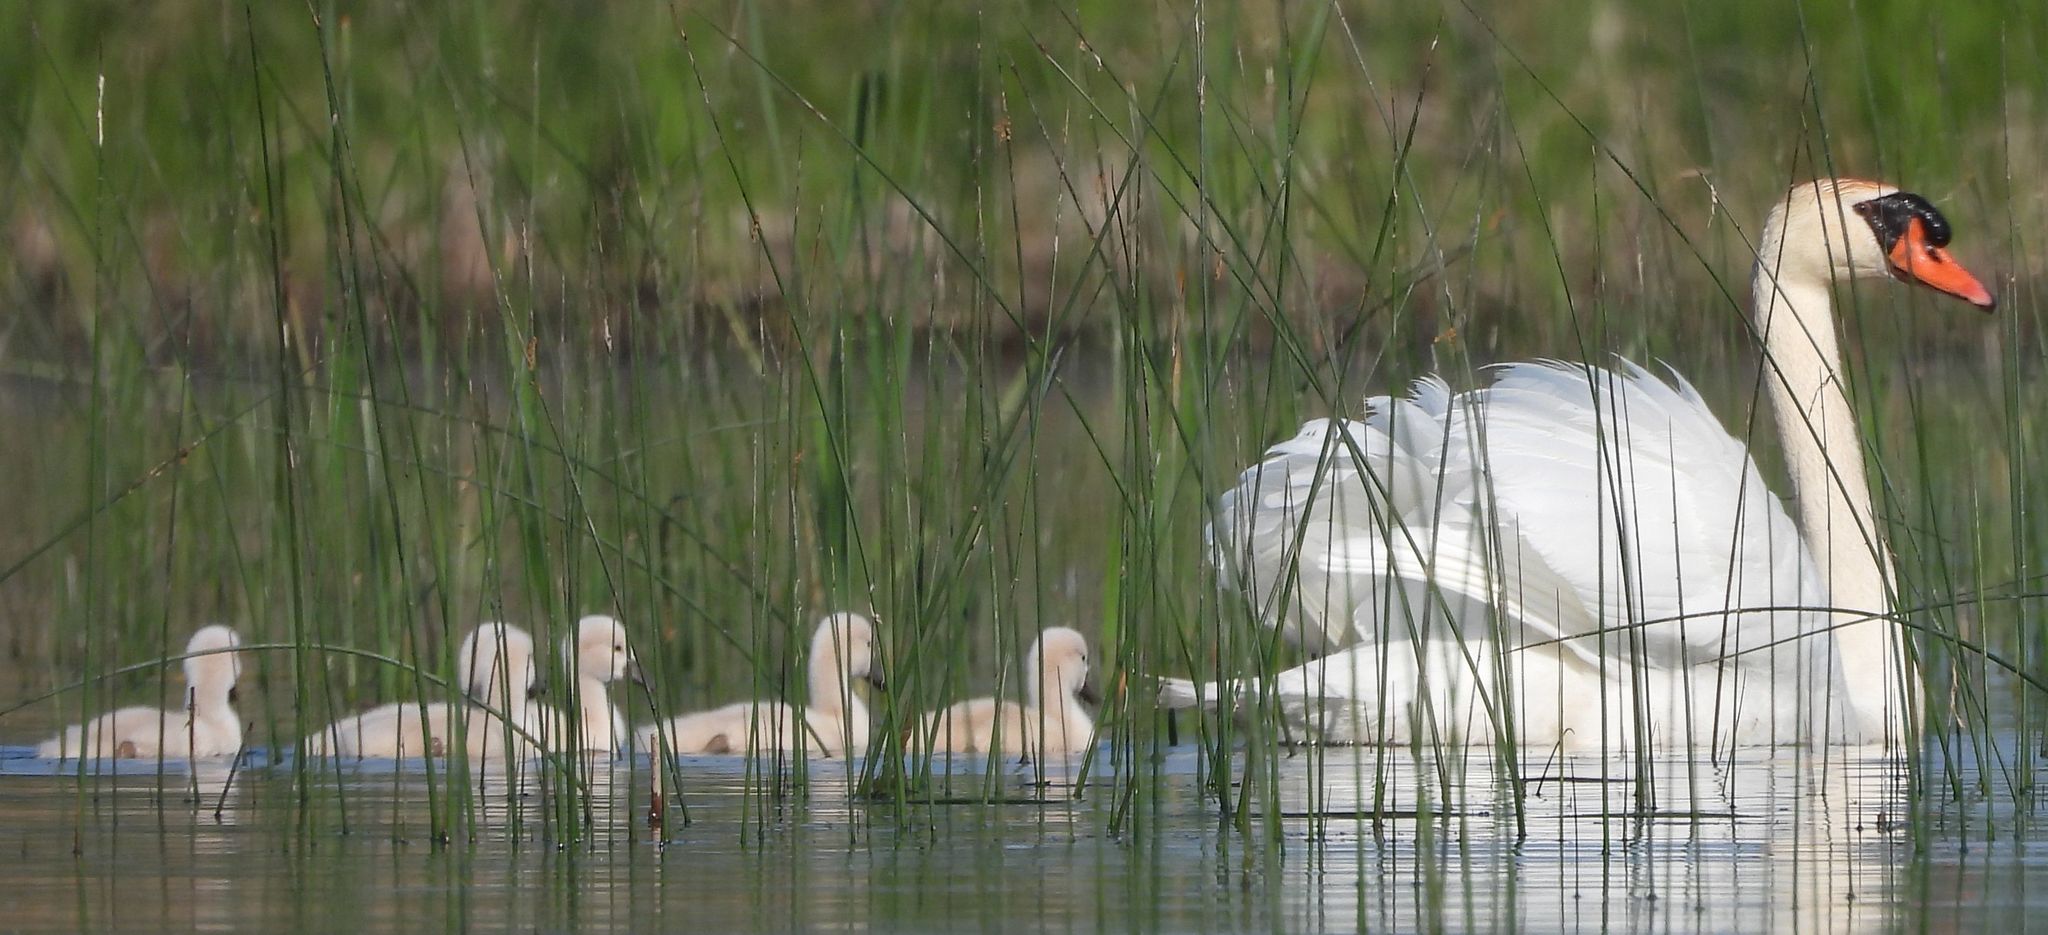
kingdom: Animalia
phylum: Chordata
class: Aves
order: Anseriformes
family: Anatidae
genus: Cygnus
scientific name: Cygnus olor
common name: Mute swan
